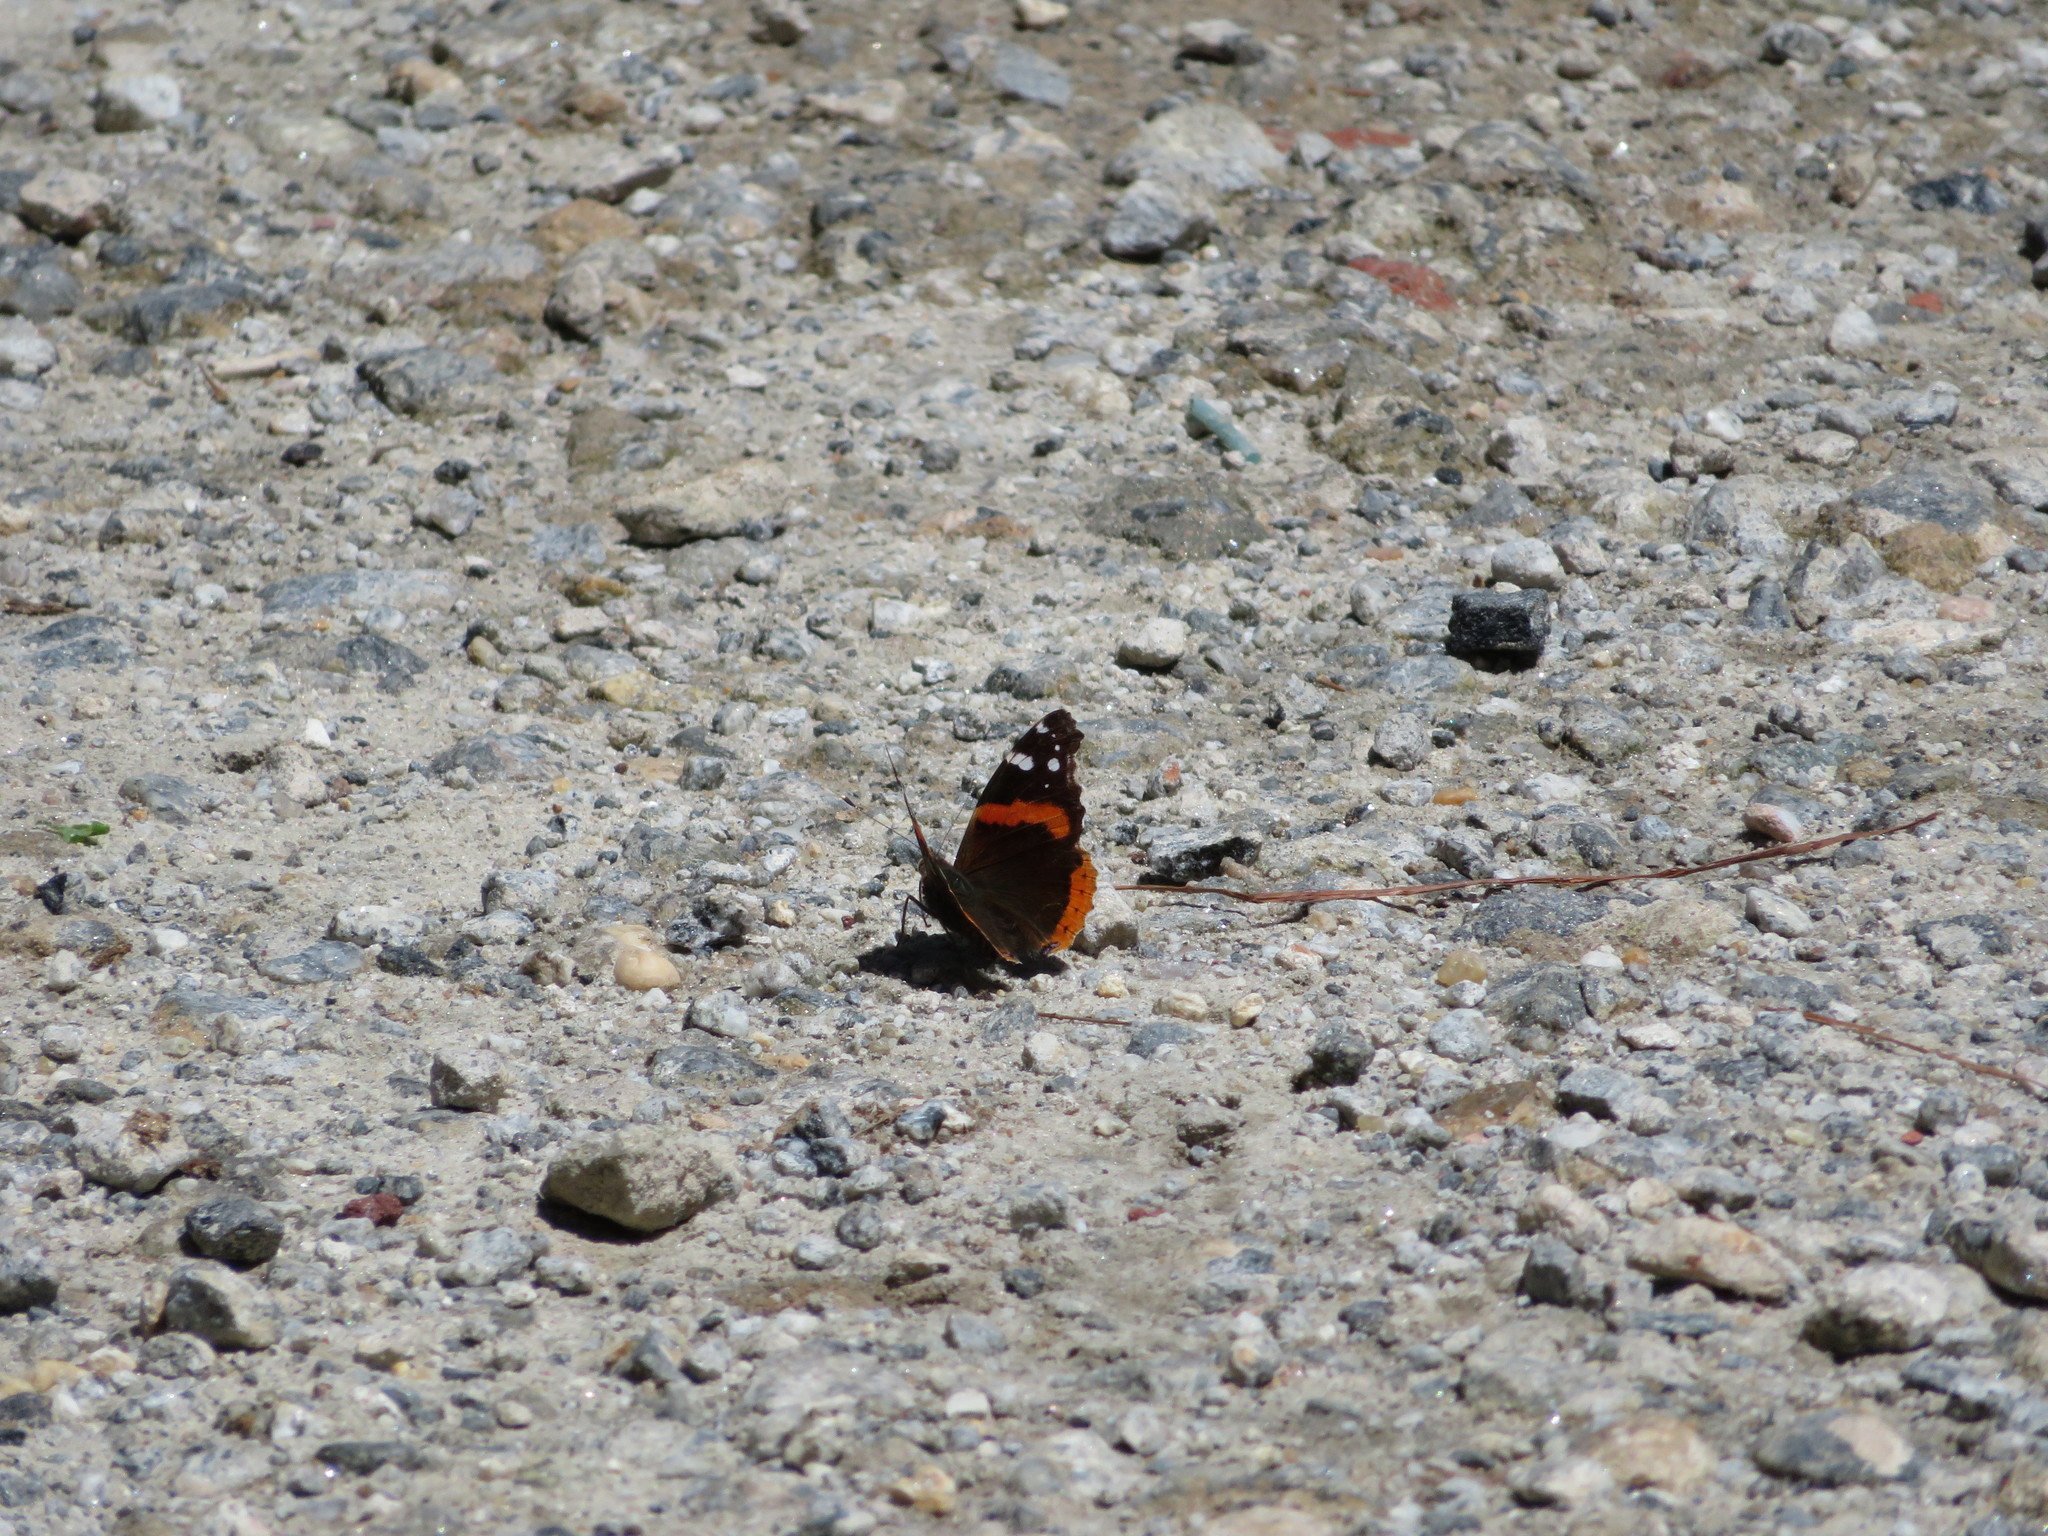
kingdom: Animalia
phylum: Arthropoda
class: Insecta
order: Lepidoptera
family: Nymphalidae
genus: Vanessa
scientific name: Vanessa atalanta
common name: Red admiral
